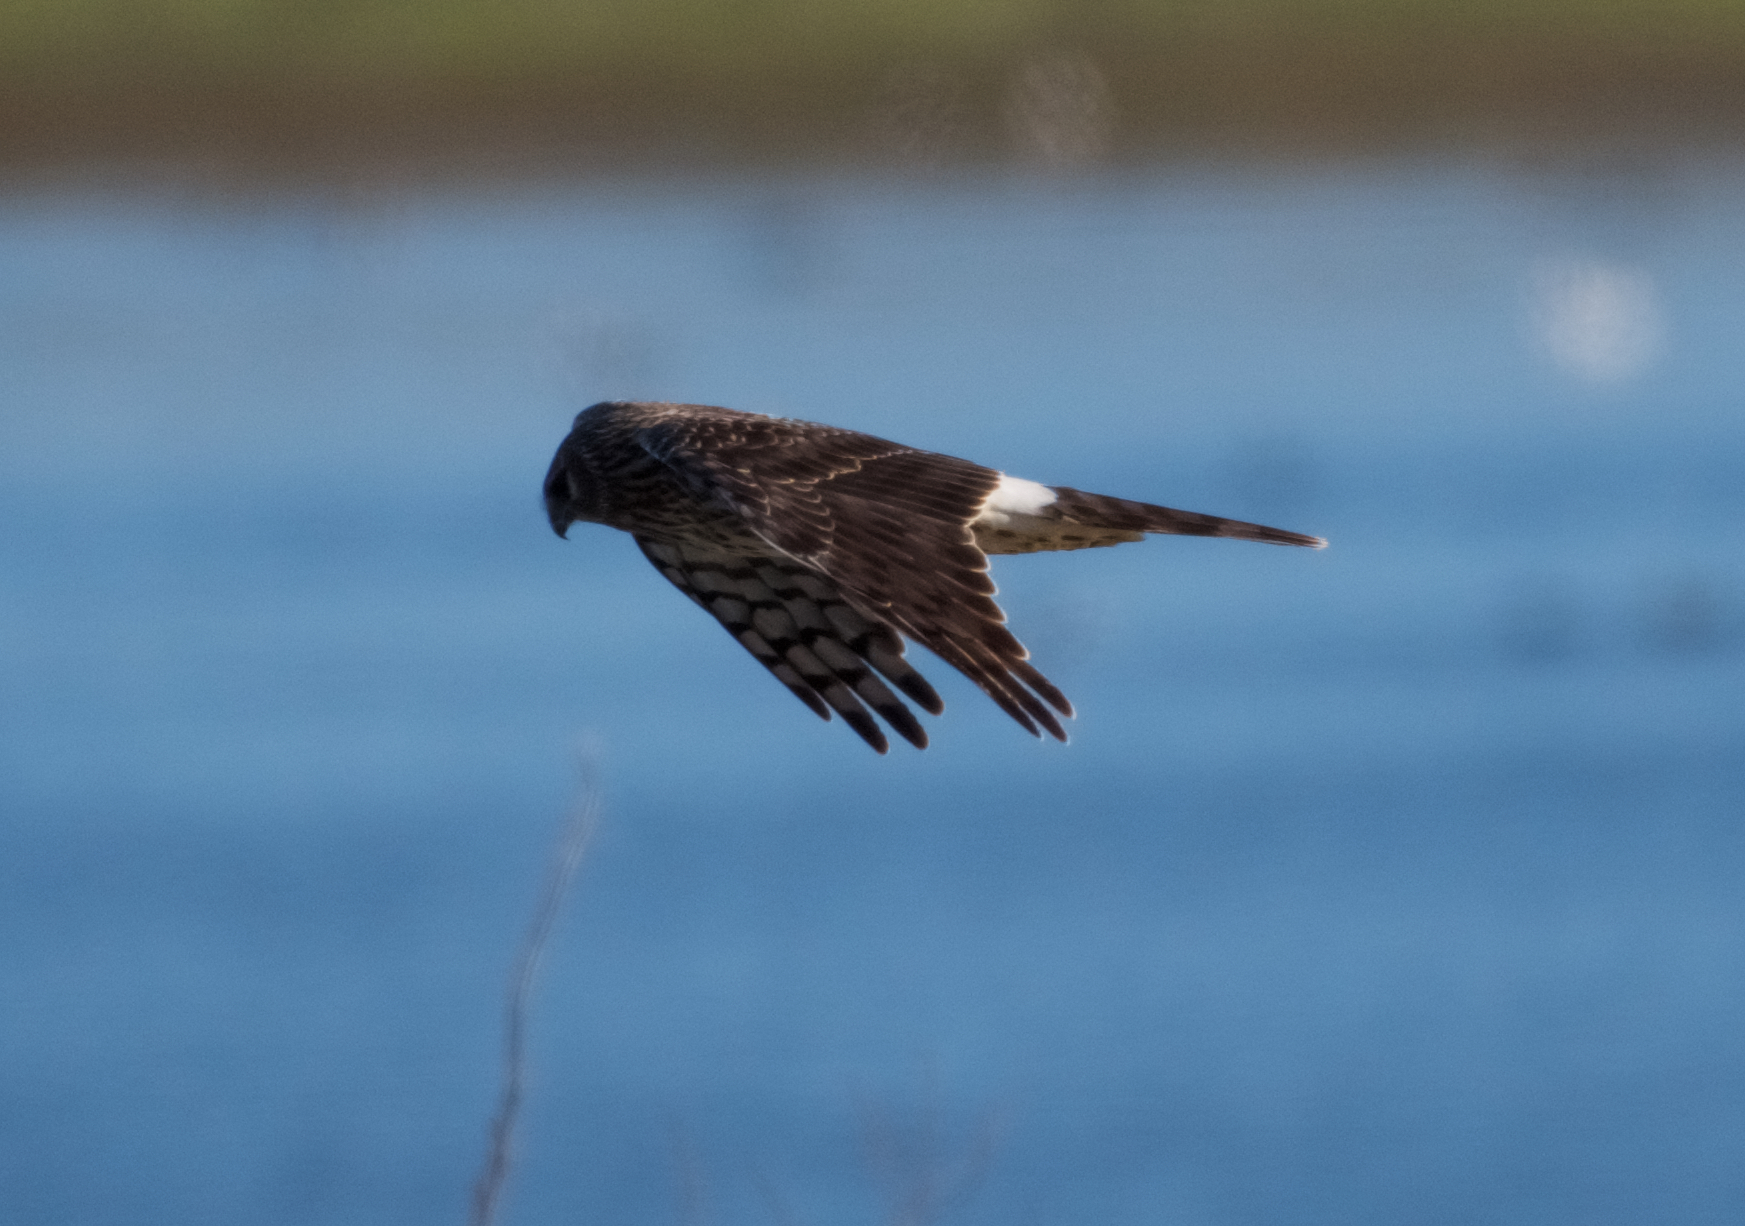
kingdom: Animalia
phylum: Chordata
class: Aves
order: Accipitriformes
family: Accipitridae
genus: Circus
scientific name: Circus cyaneus
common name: Hen harrier
